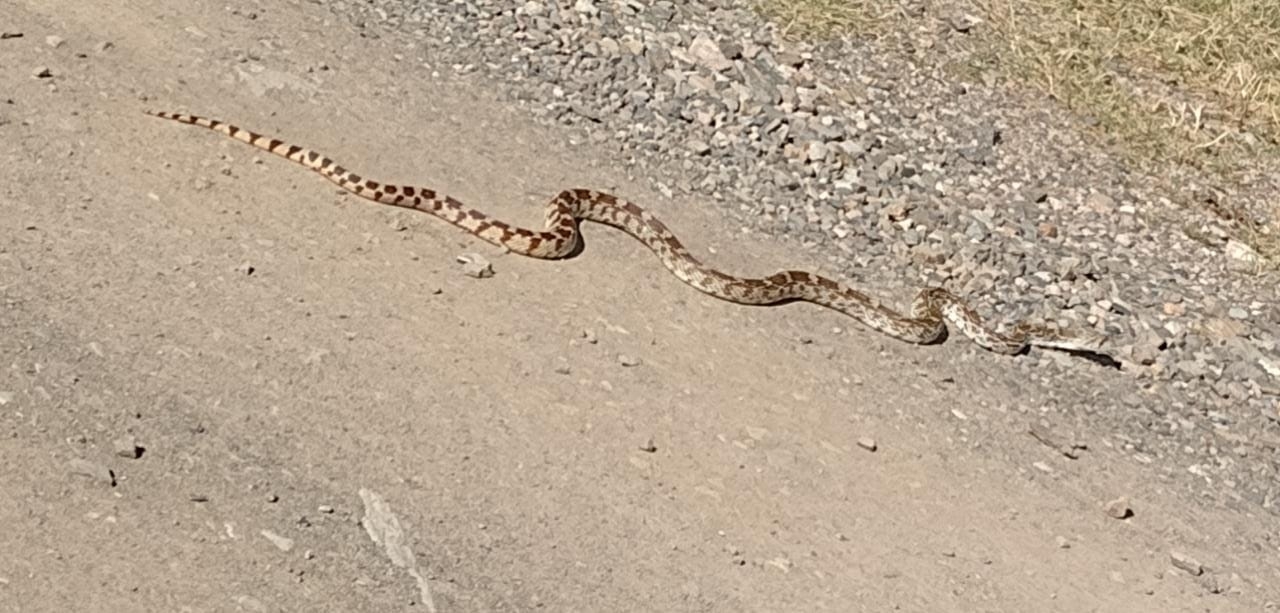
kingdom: Animalia
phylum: Chordata
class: Squamata
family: Colubridae
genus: Pituophis
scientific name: Pituophis catenifer
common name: Gopher snake
